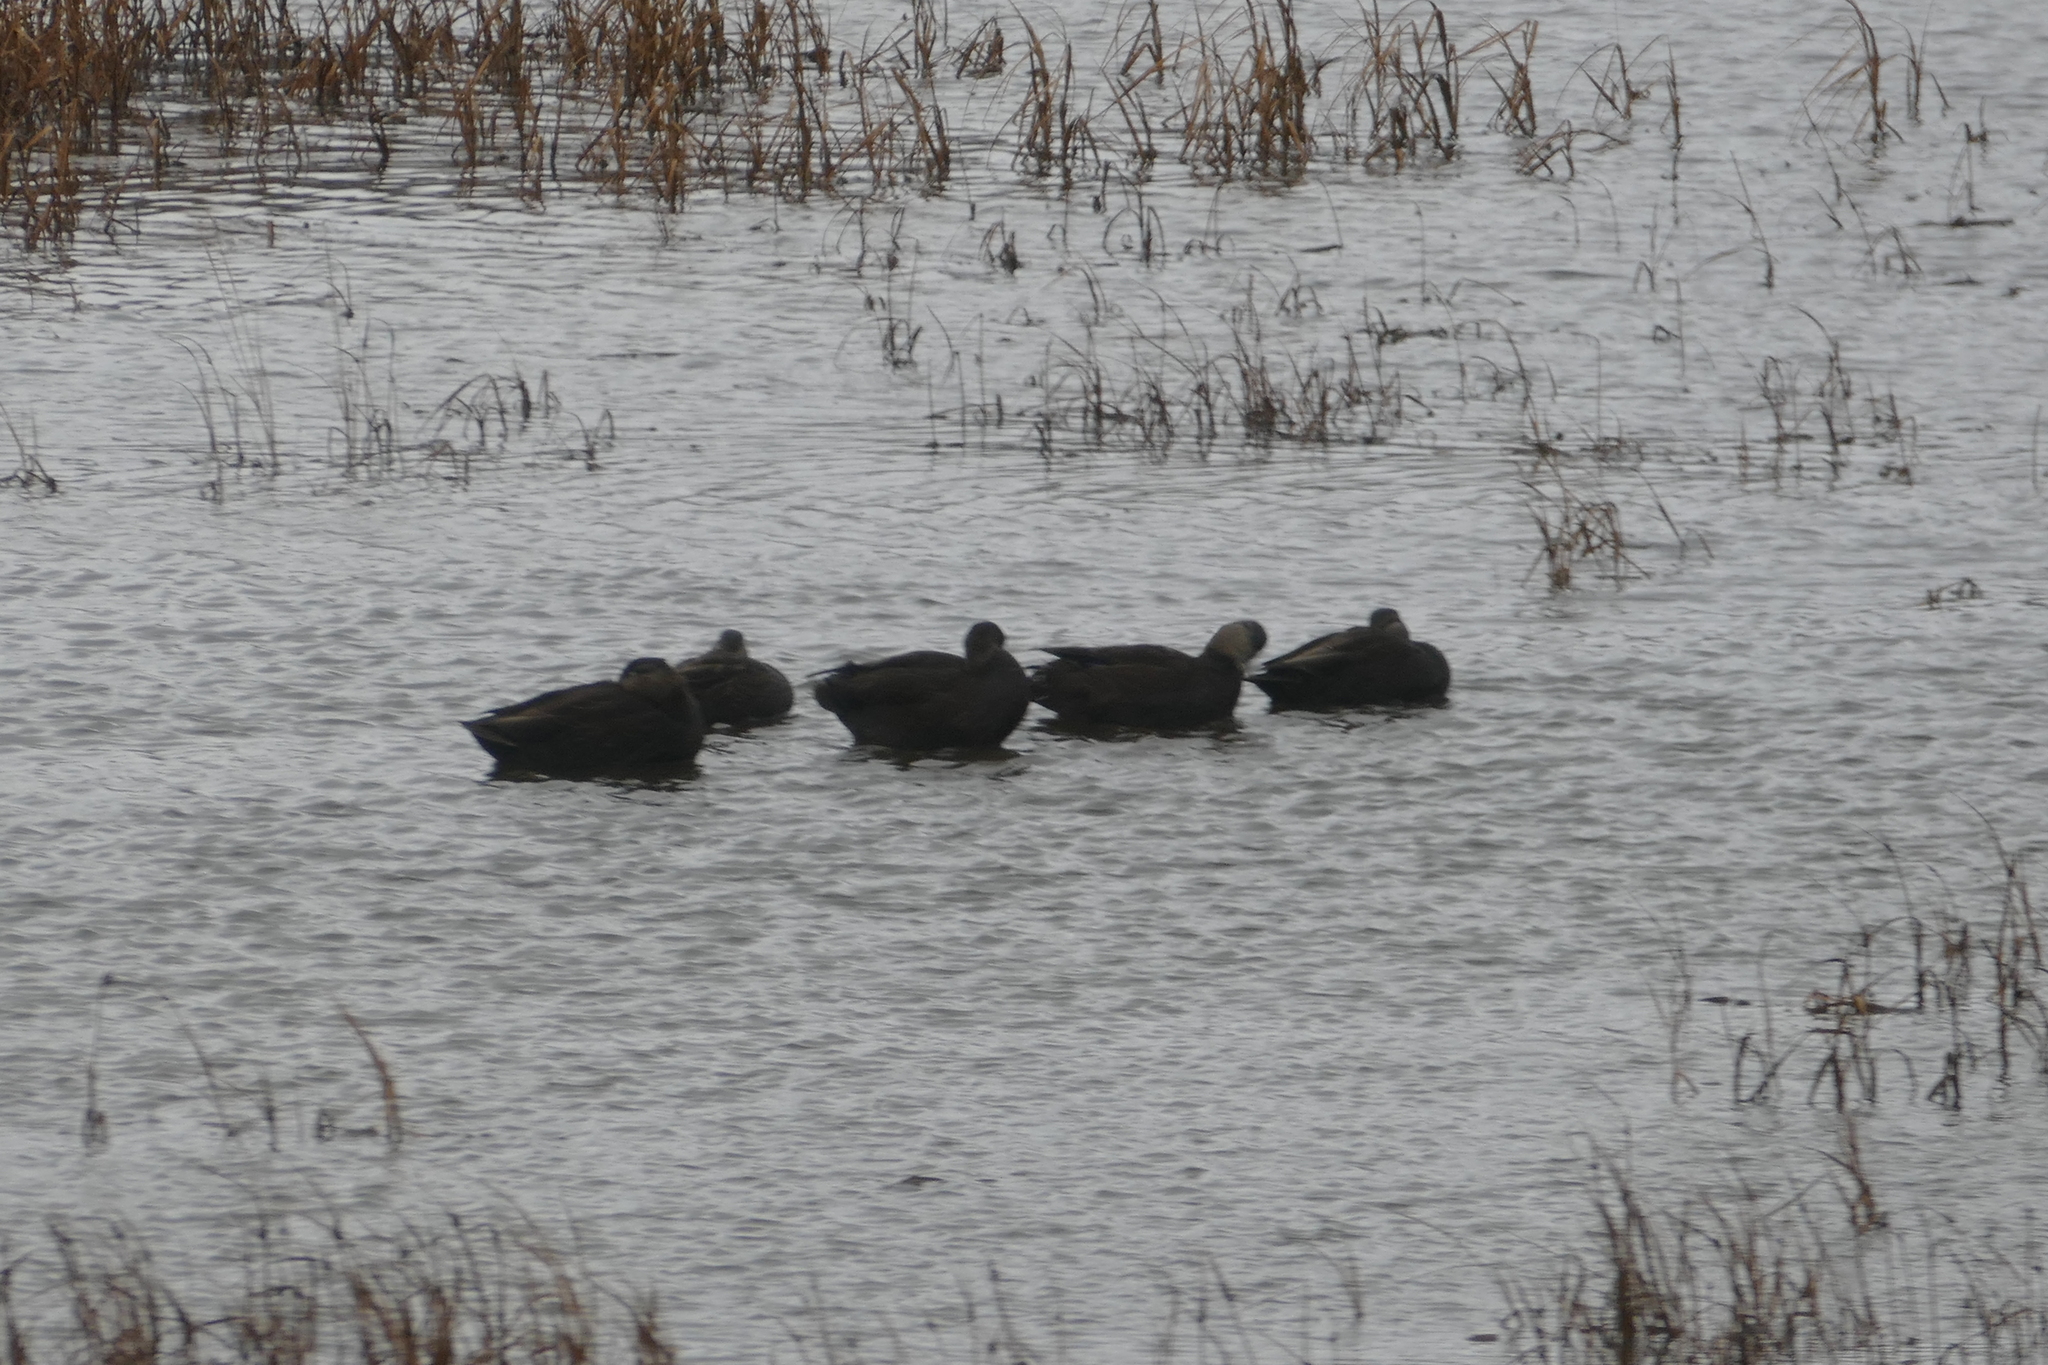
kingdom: Animalia
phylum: Chordata
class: Aves
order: Anseriformes
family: Anatidae
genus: Anas
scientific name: Anas rubripes
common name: American black duck
